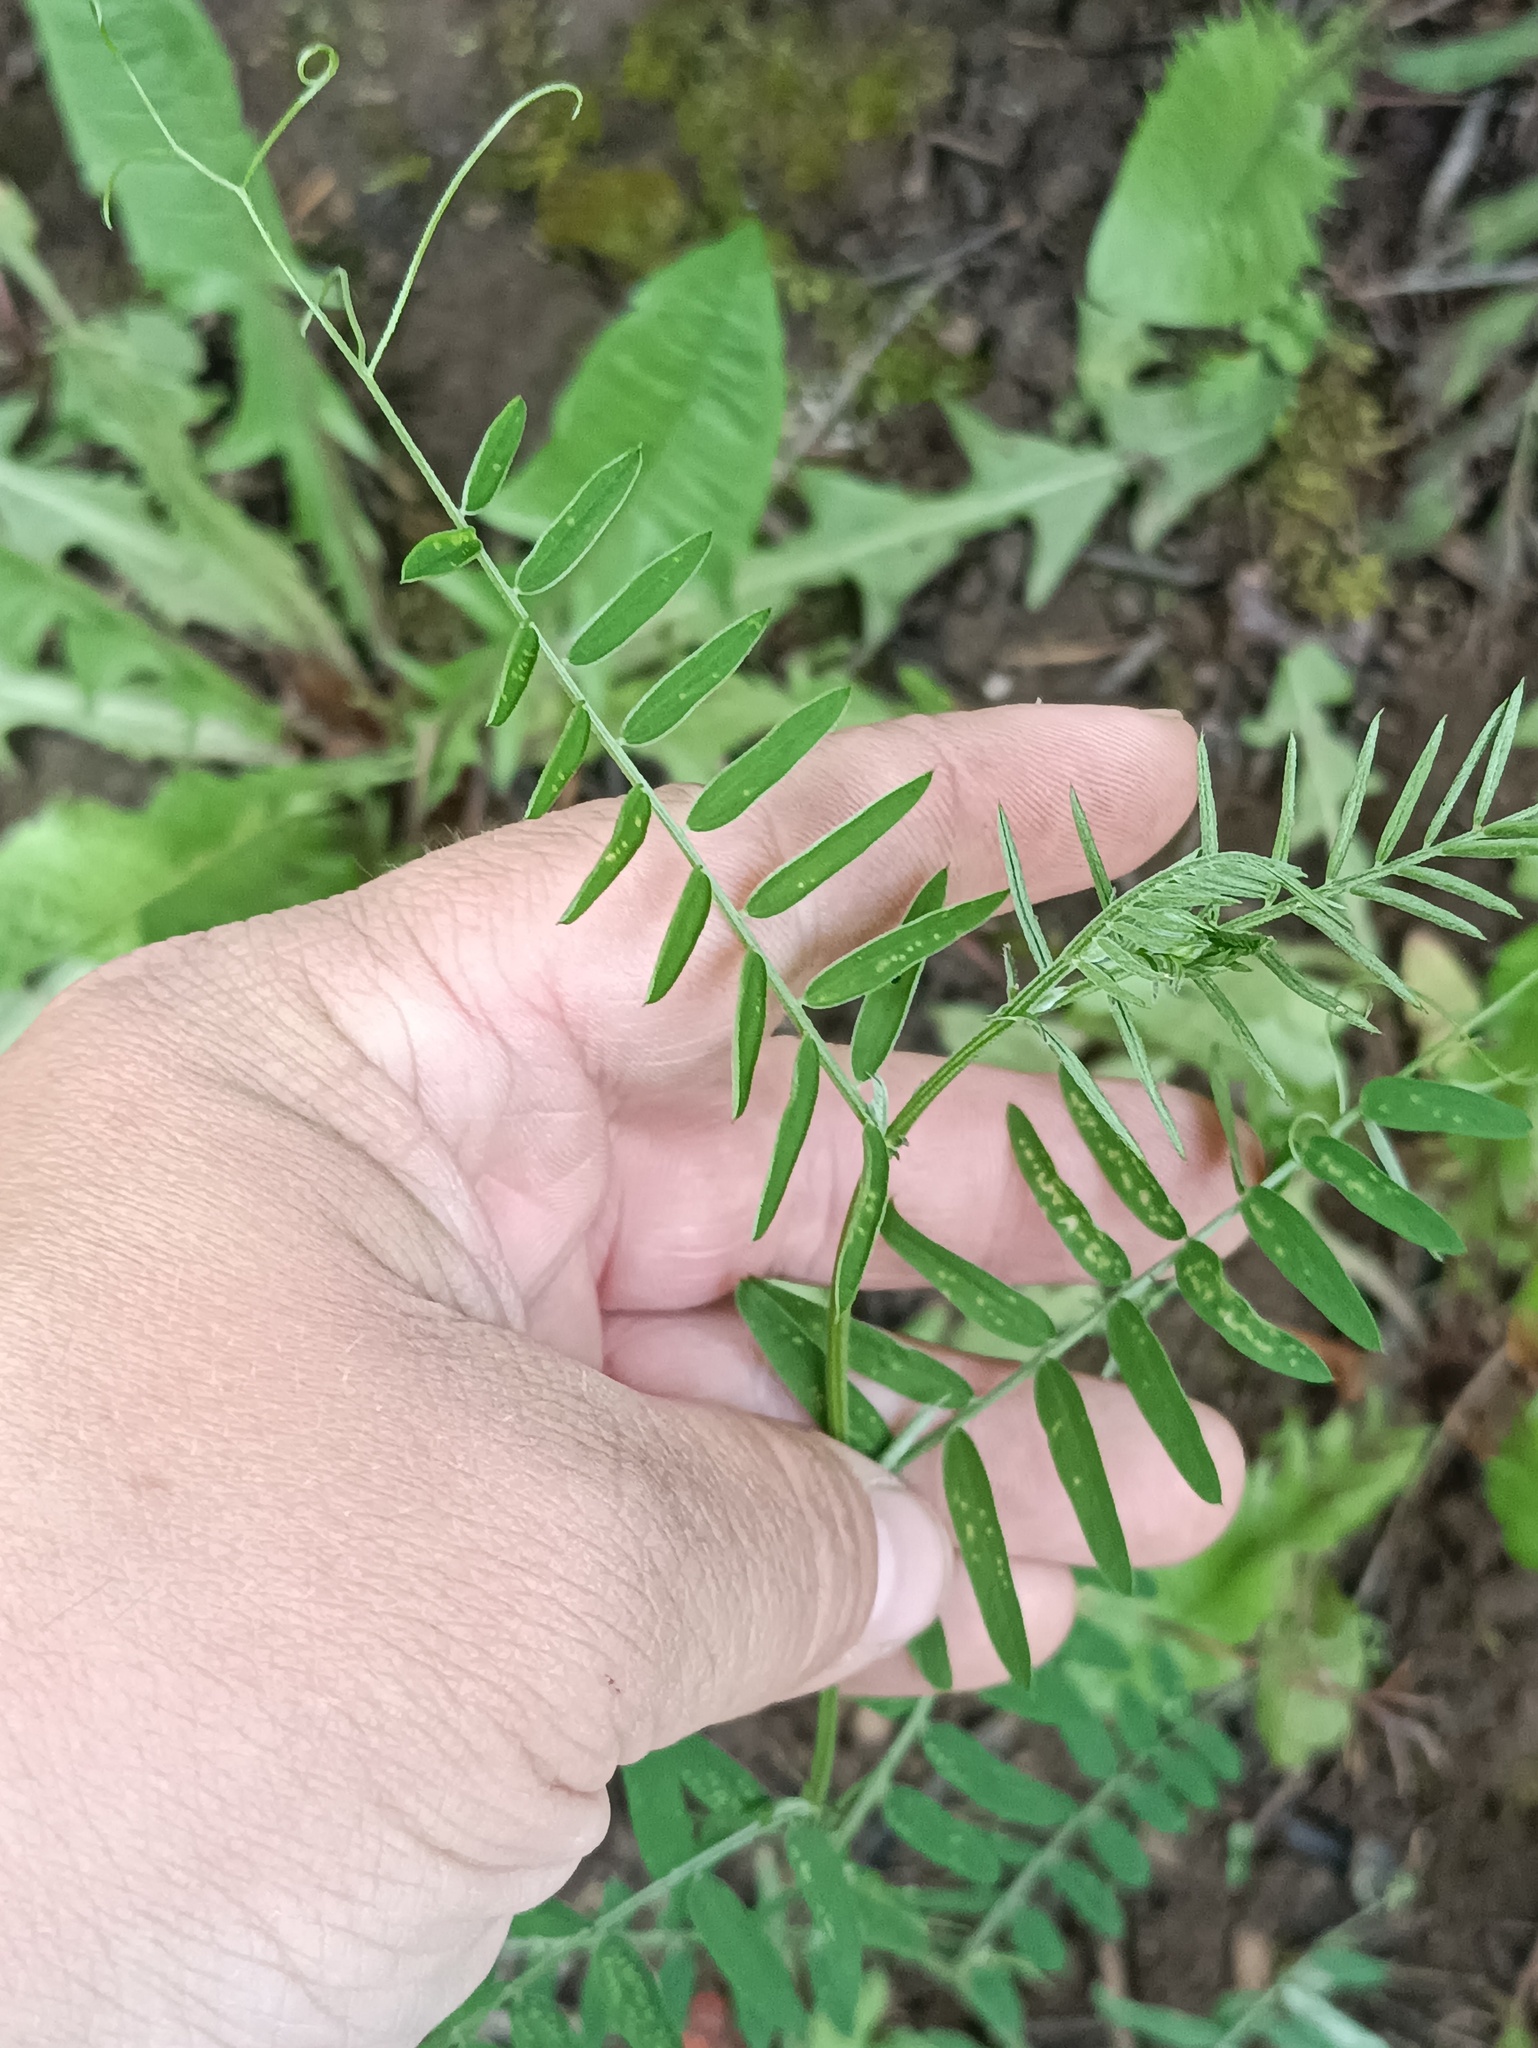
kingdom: Plantae
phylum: Tracheophyta
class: Magnoliopsida
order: Fabales
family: Fabaceae
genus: Vicia
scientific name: Vicia cracca
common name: Bird vetch
